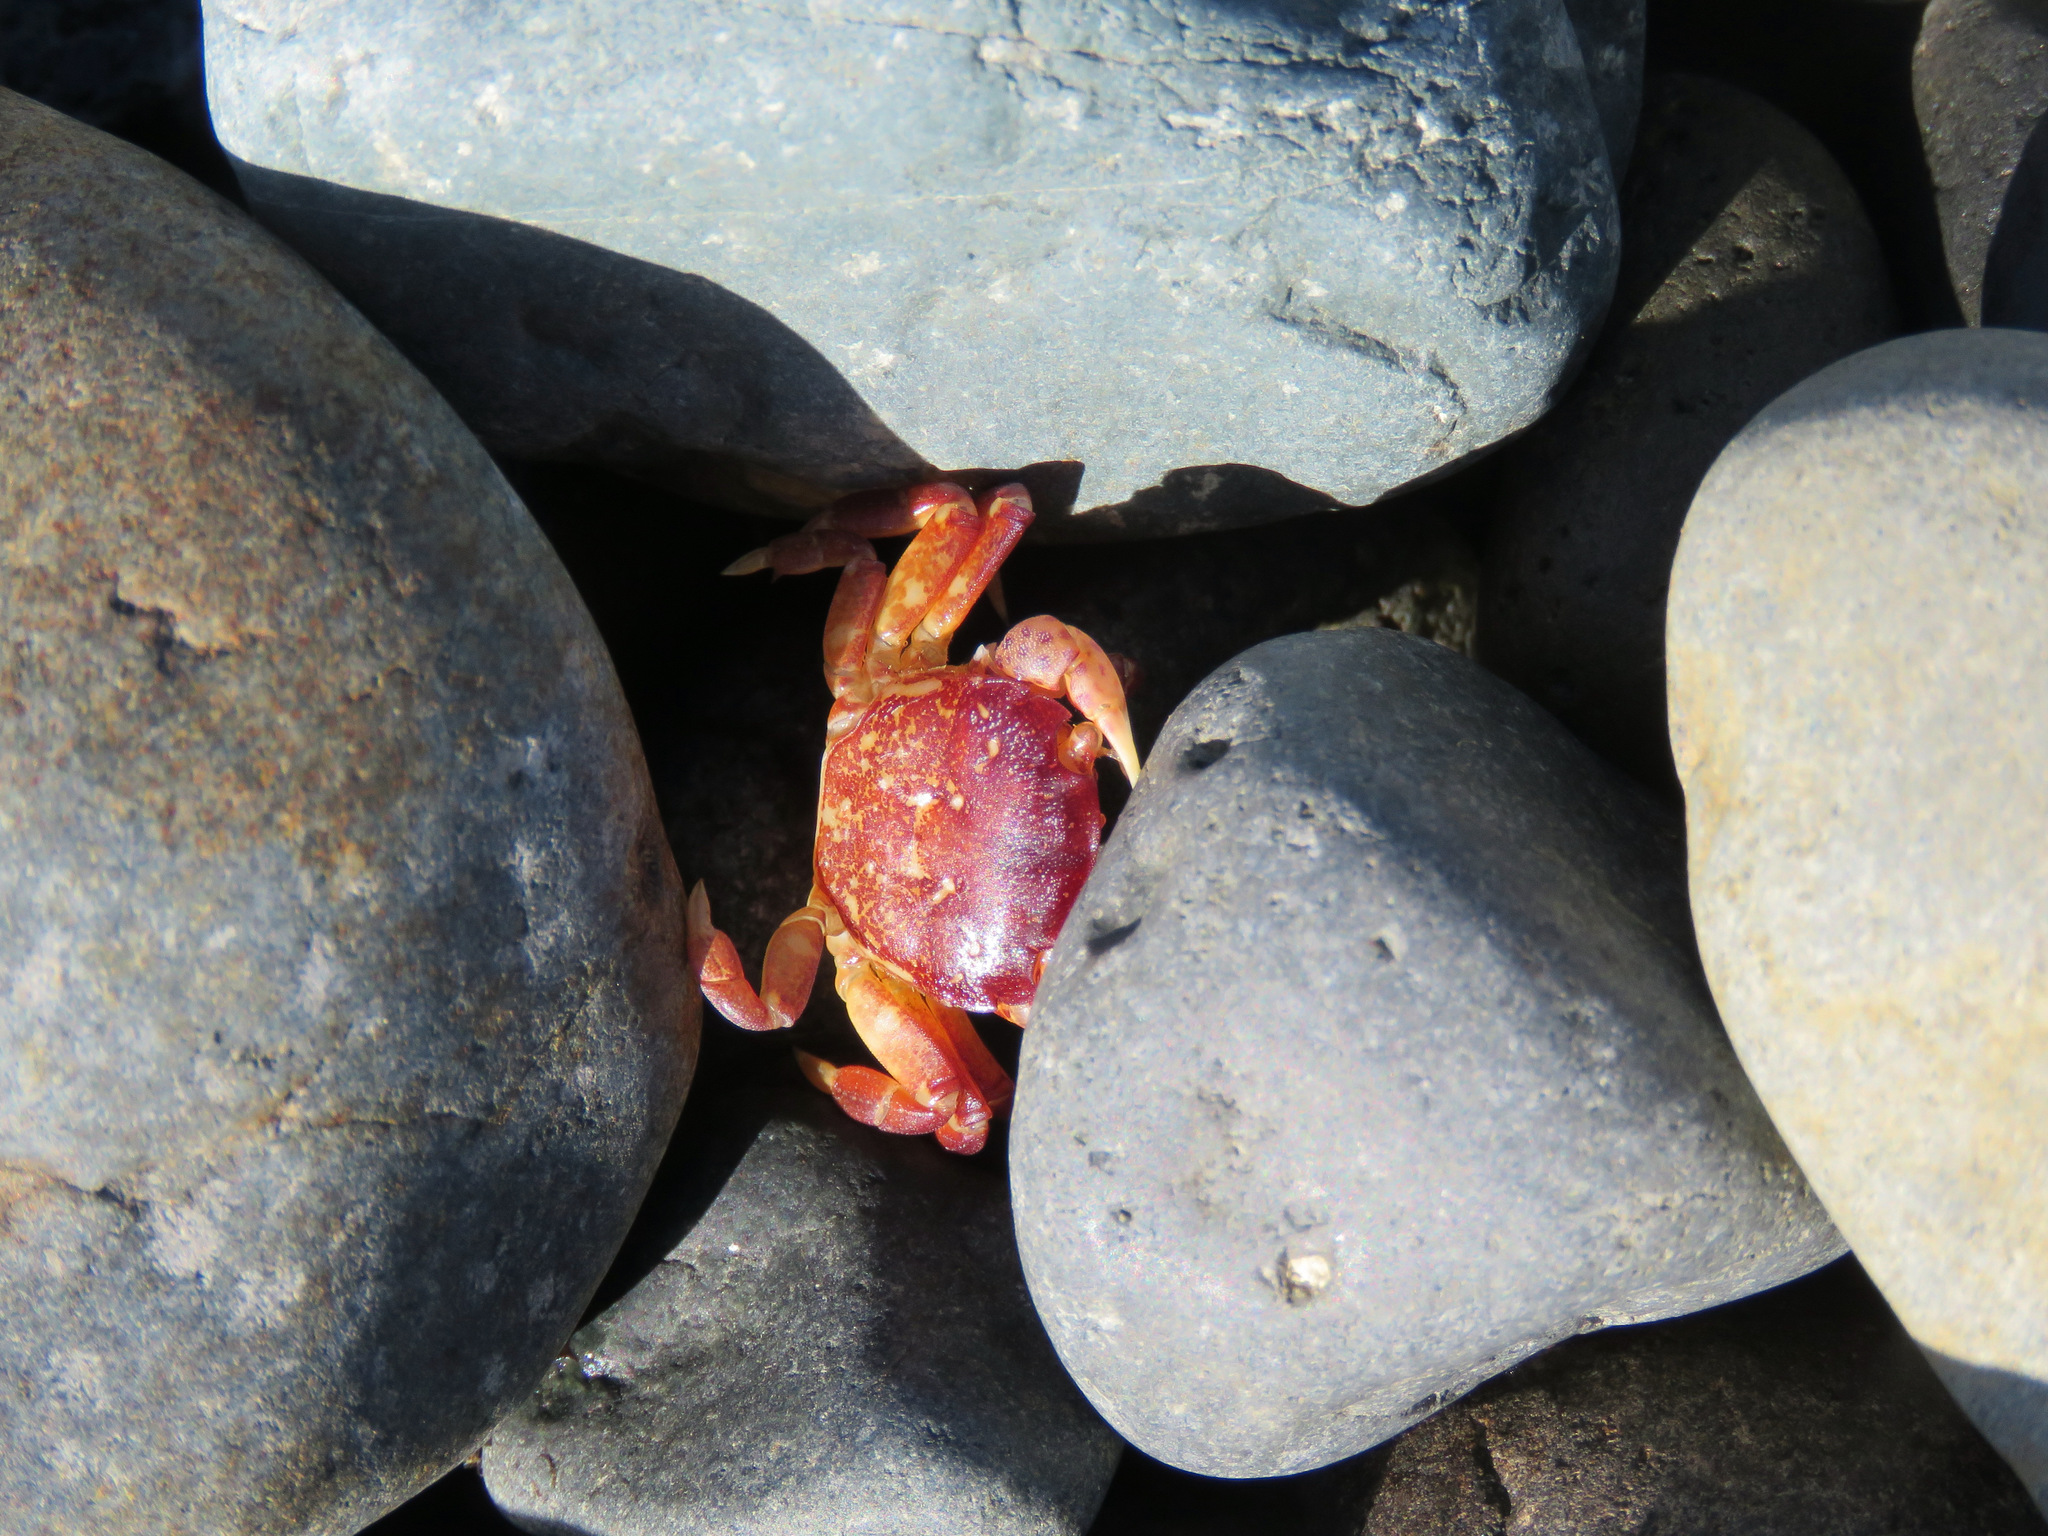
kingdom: Animalia
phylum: Arthropoda
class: Malacostraca
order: Decapoda
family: Varunidae
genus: Hemigrapsus
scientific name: Hemigrapsus nudus
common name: Purple shore crab
